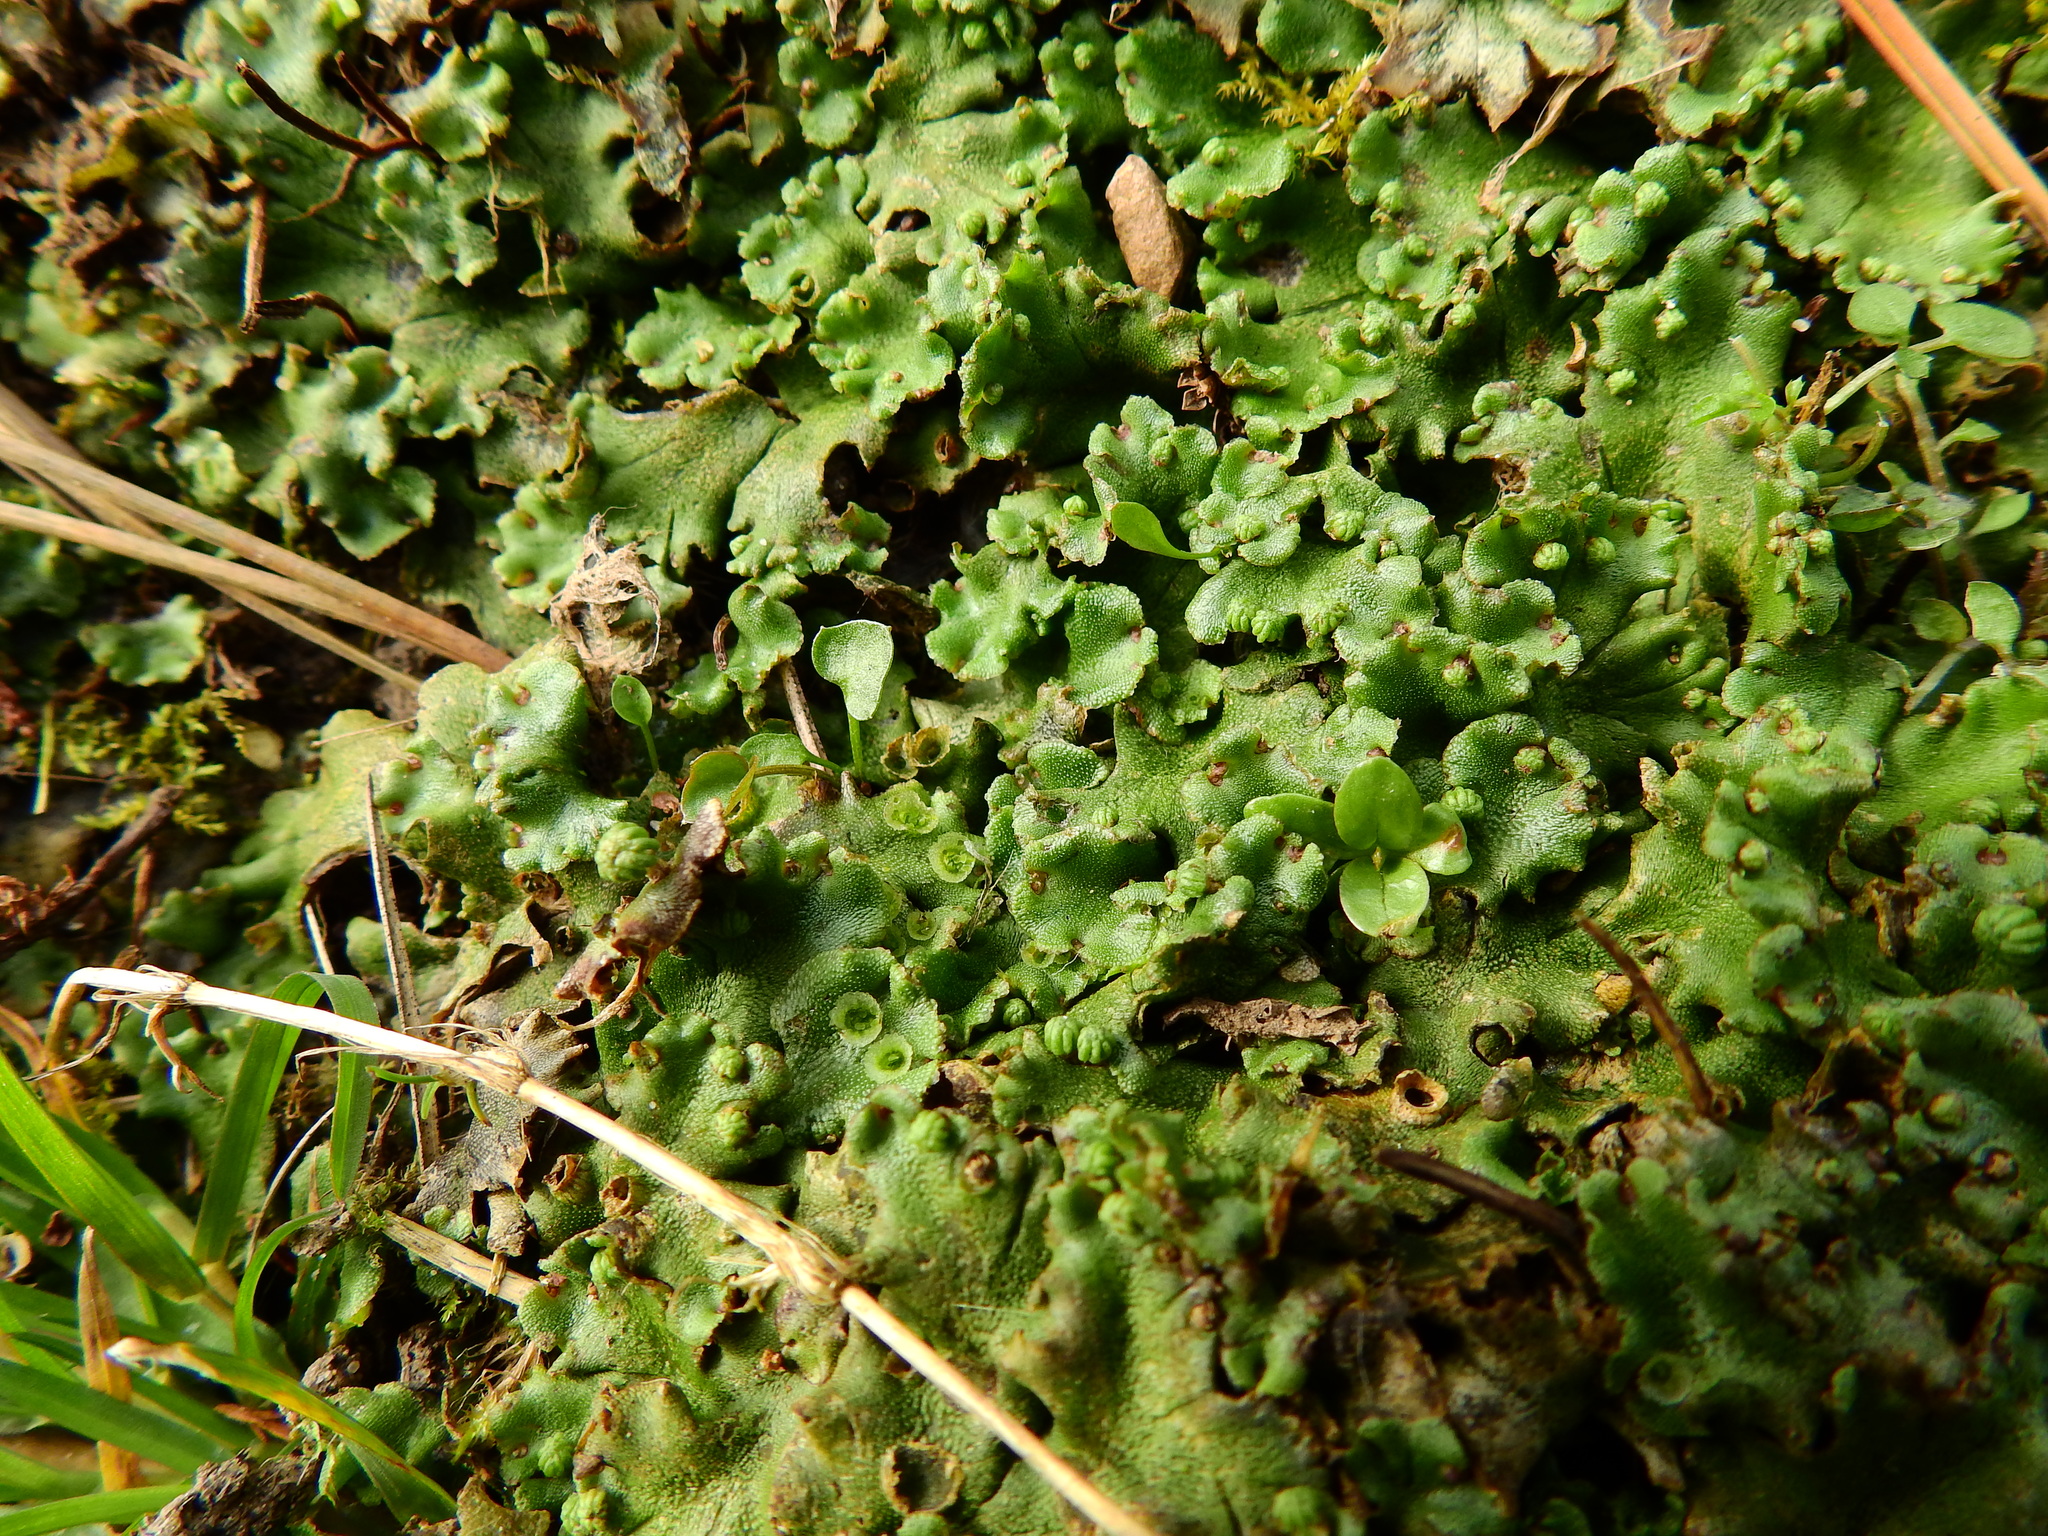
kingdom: Plantae
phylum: Marchantiophyta
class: Marchantiopsida
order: Marchantiales
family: Marchantiaceae
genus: Marchantia
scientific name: Marchantia polymorpha
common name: Common liverwort
